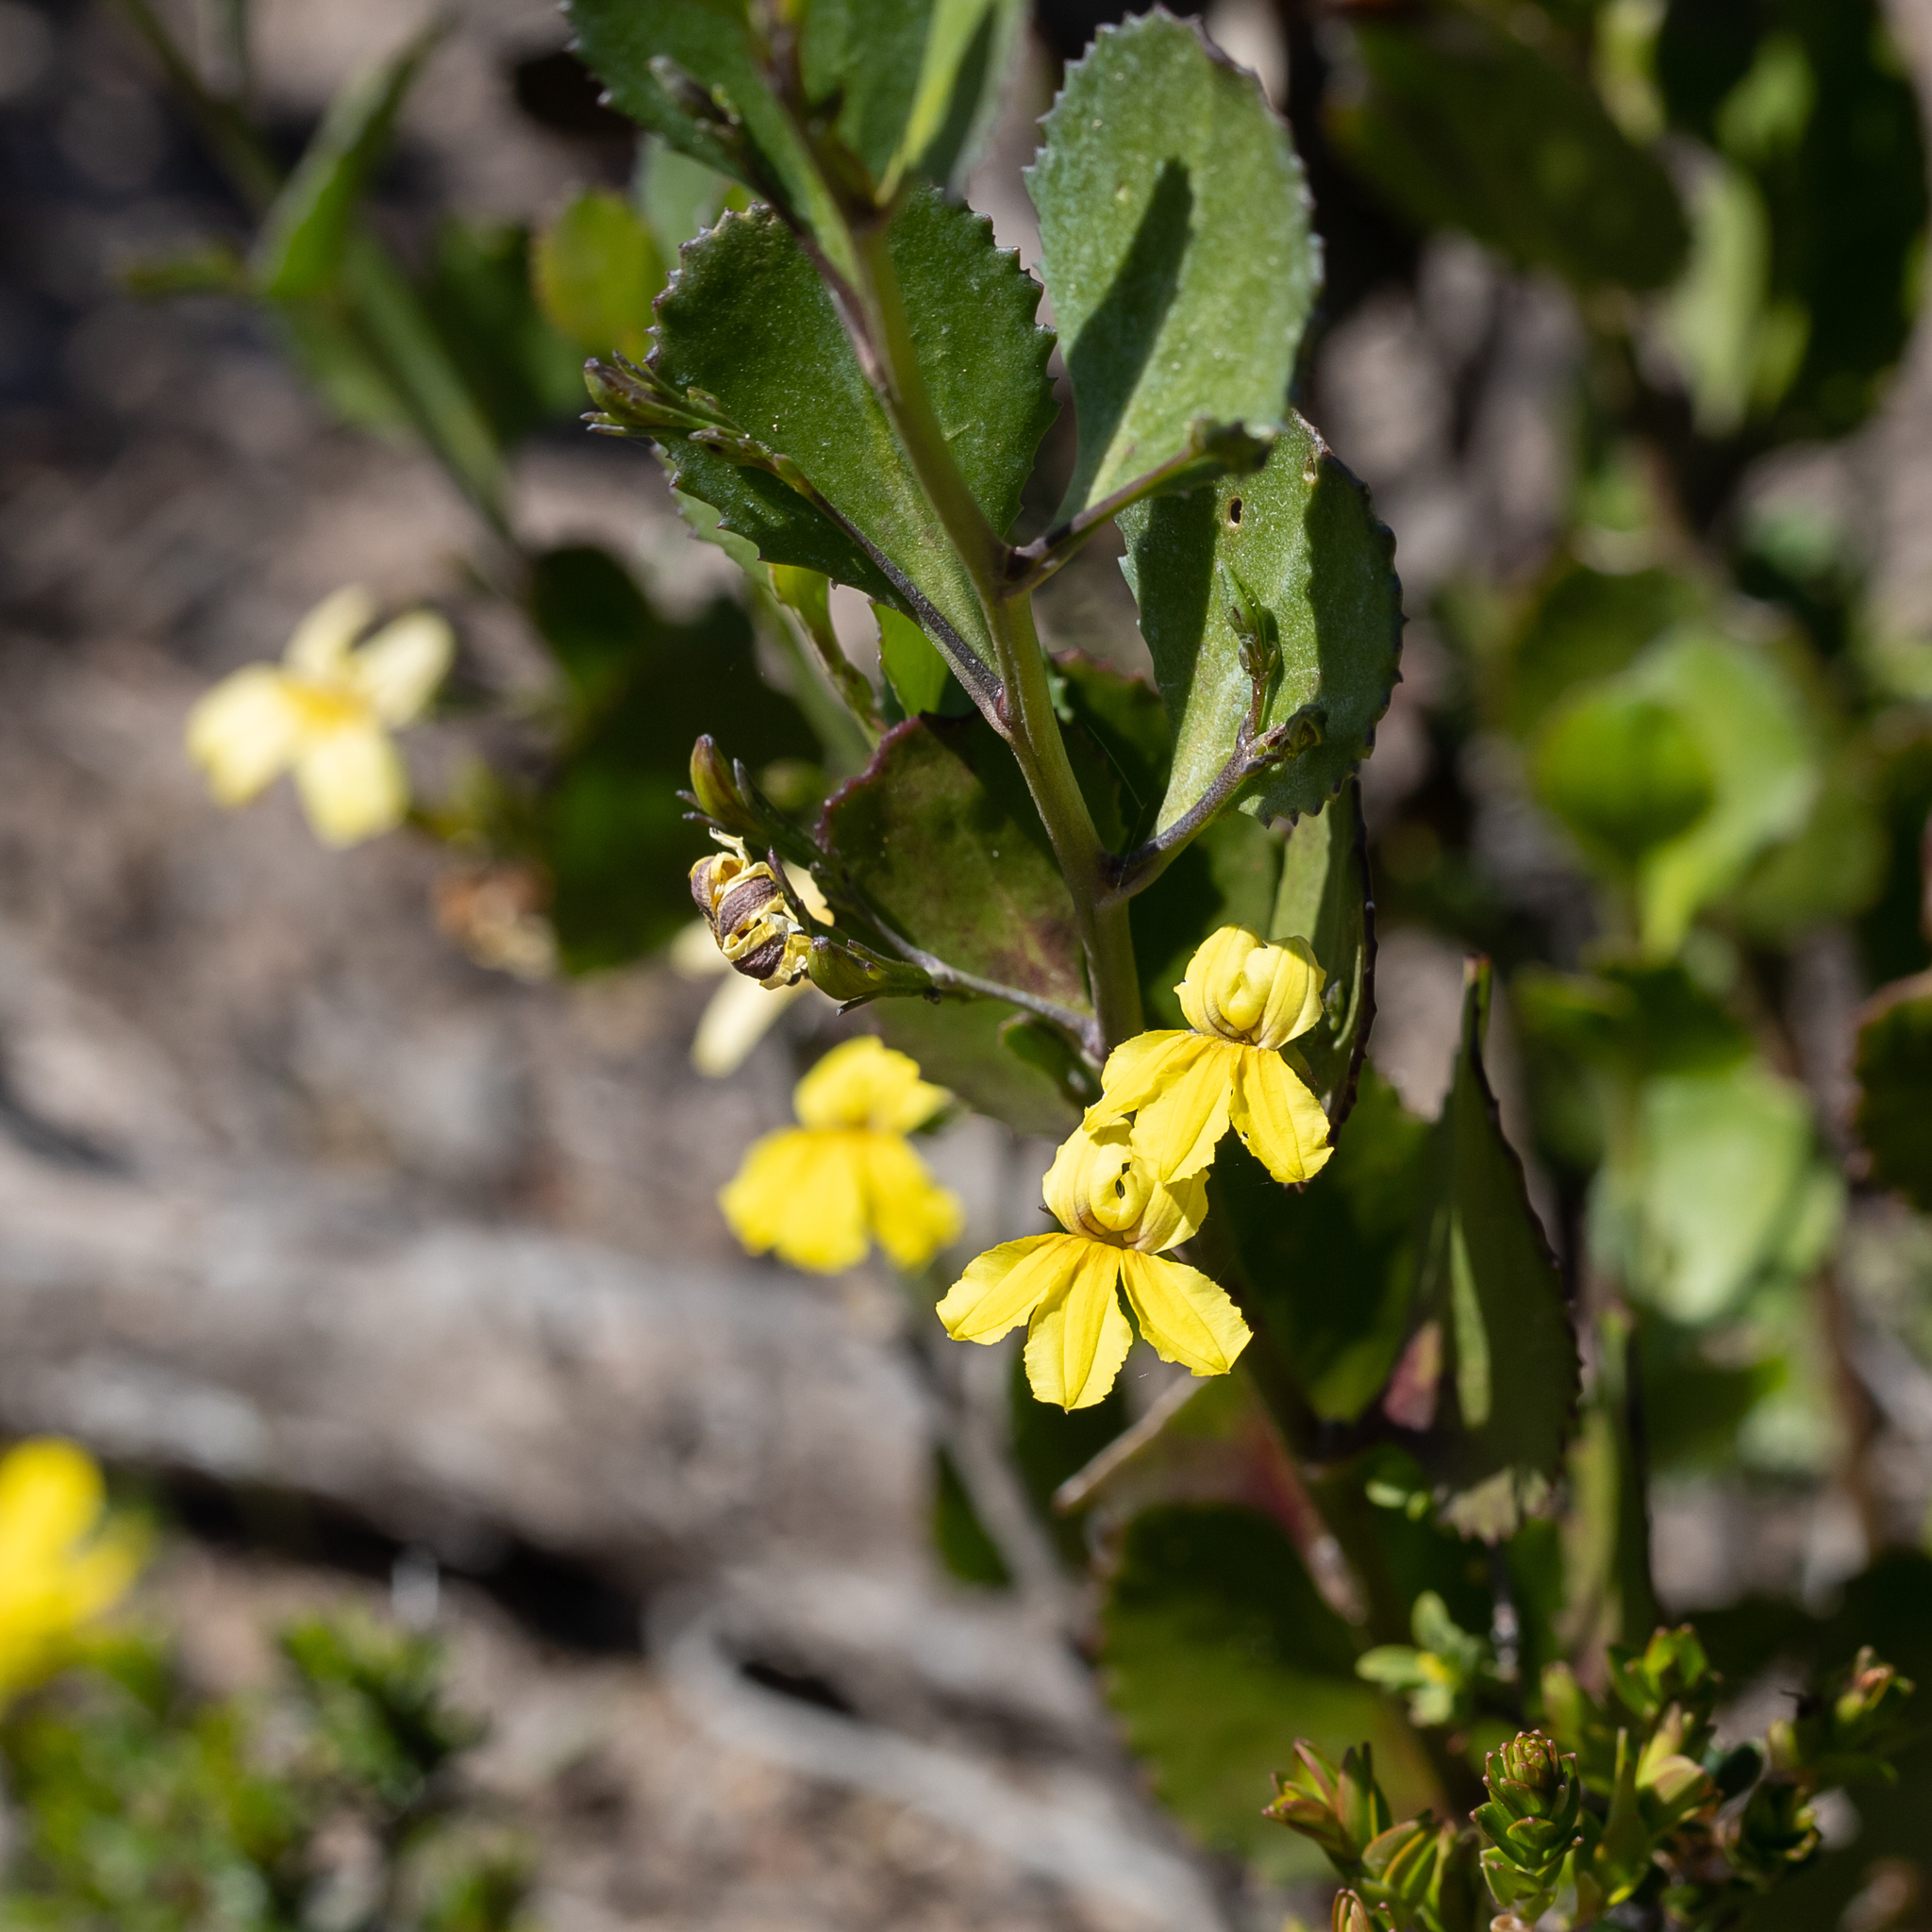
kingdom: Plantae
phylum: Tracheophyta
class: Magnoliopsida
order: Asterales
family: Goodeniaceae
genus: Goodenia
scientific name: Goodenia varia
